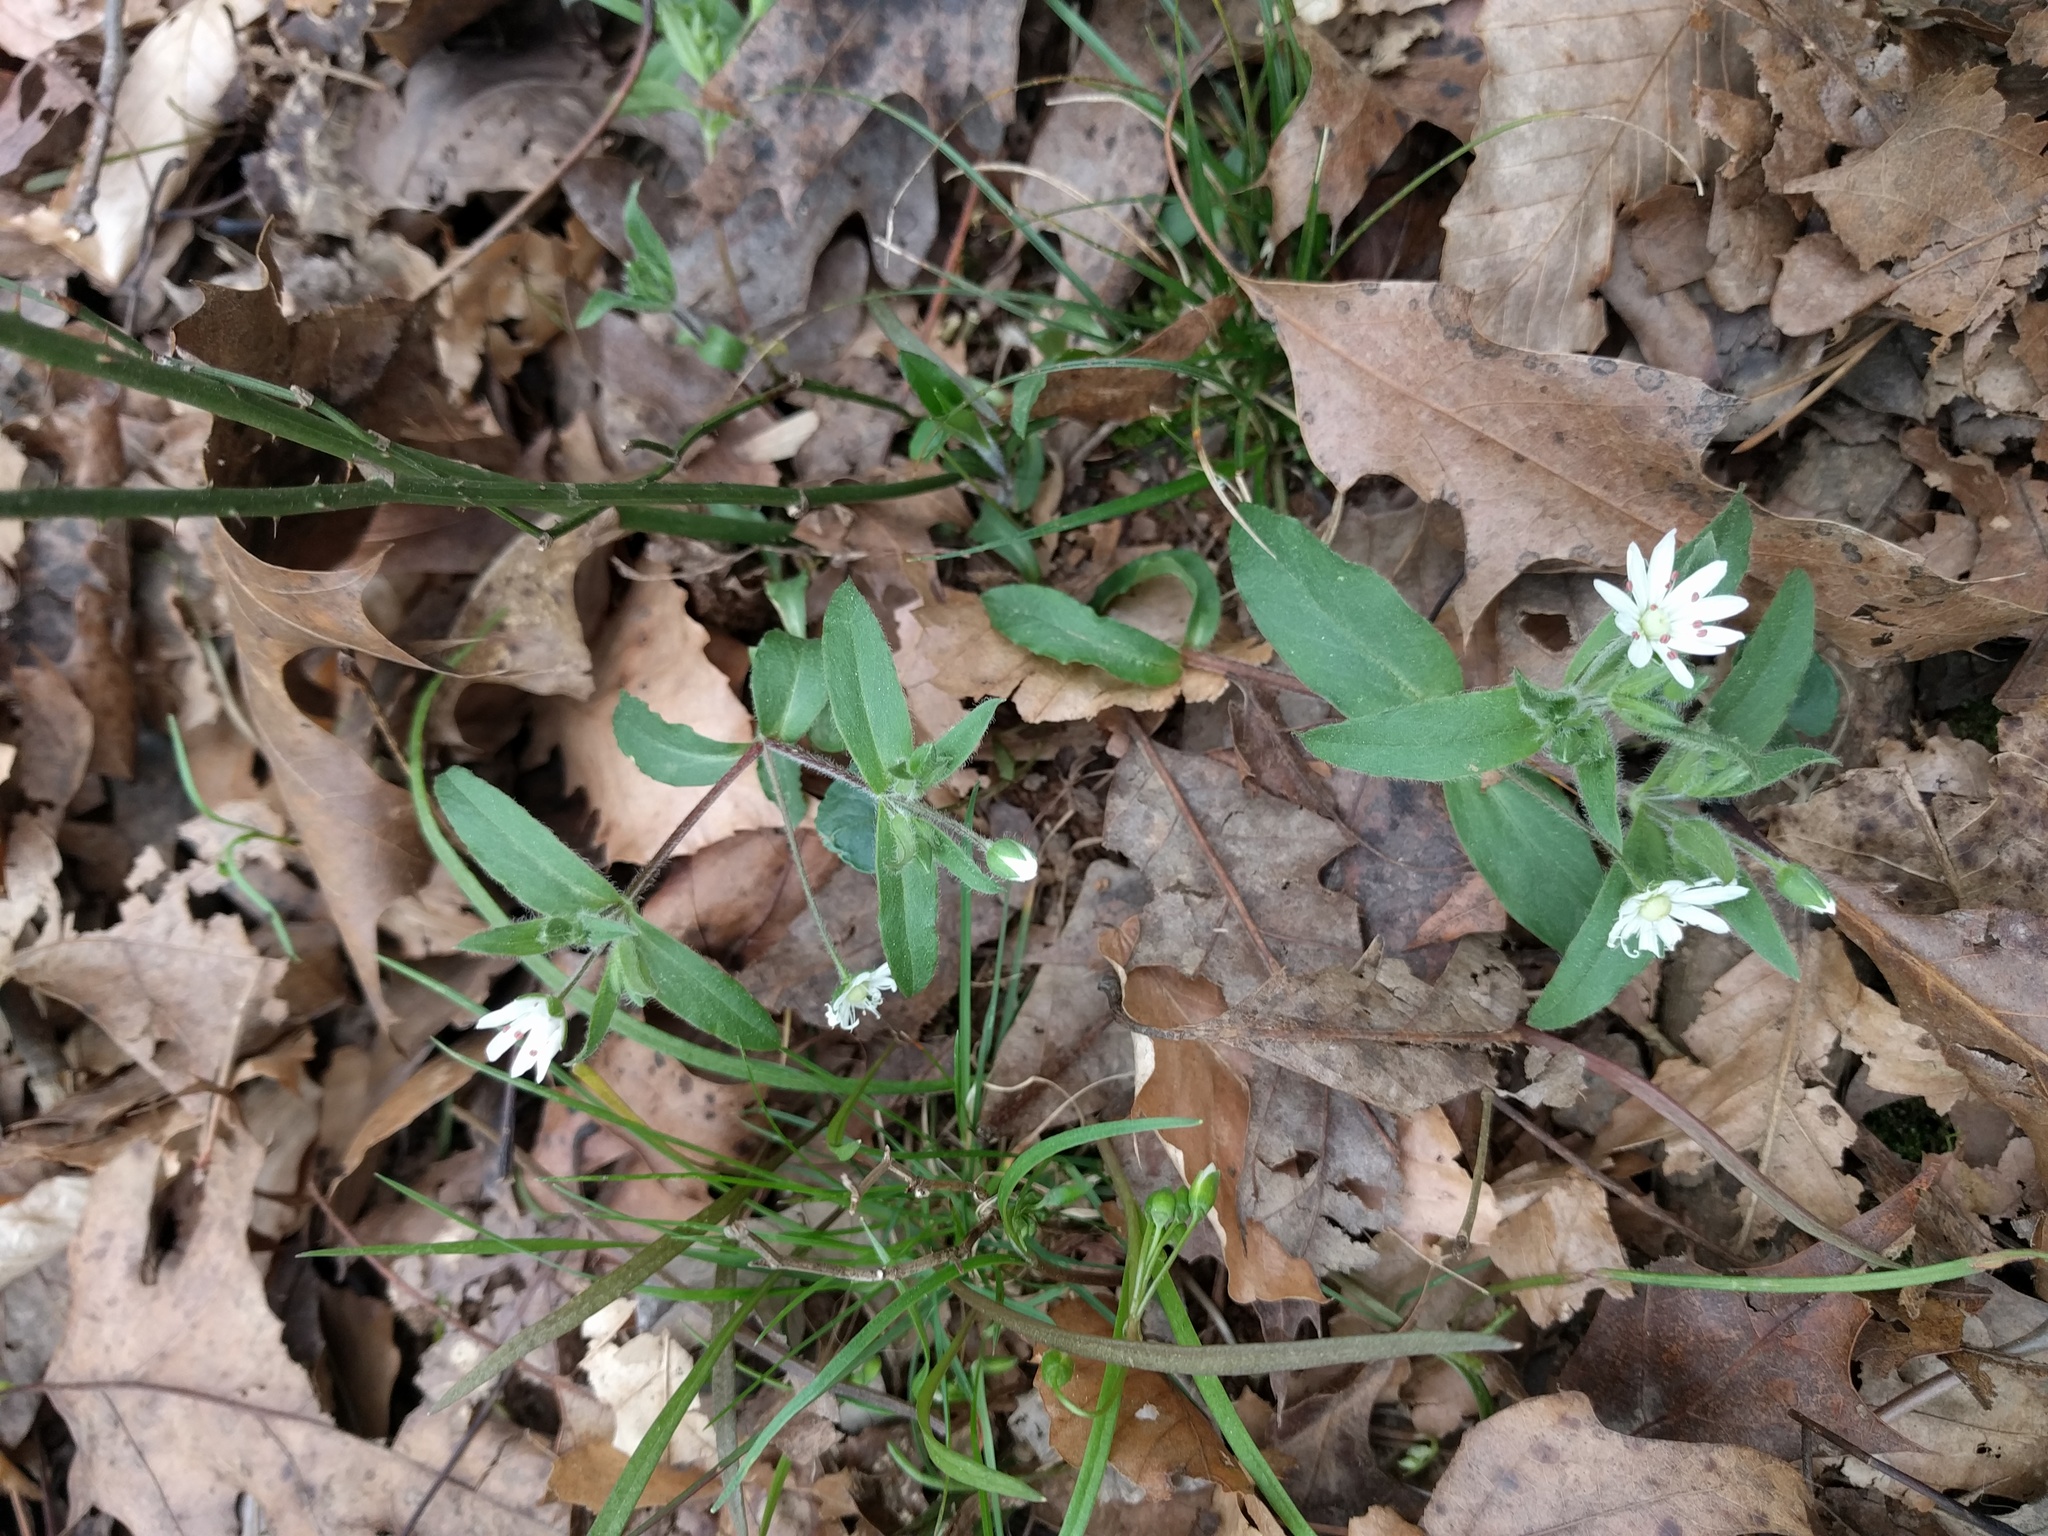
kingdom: Plantae
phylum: Tracheophyta
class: Magnoliopsida
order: Caryophyllales
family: Caryophyllaceae
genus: Stellaria
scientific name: Stellaria pubera
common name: Star chickweed
